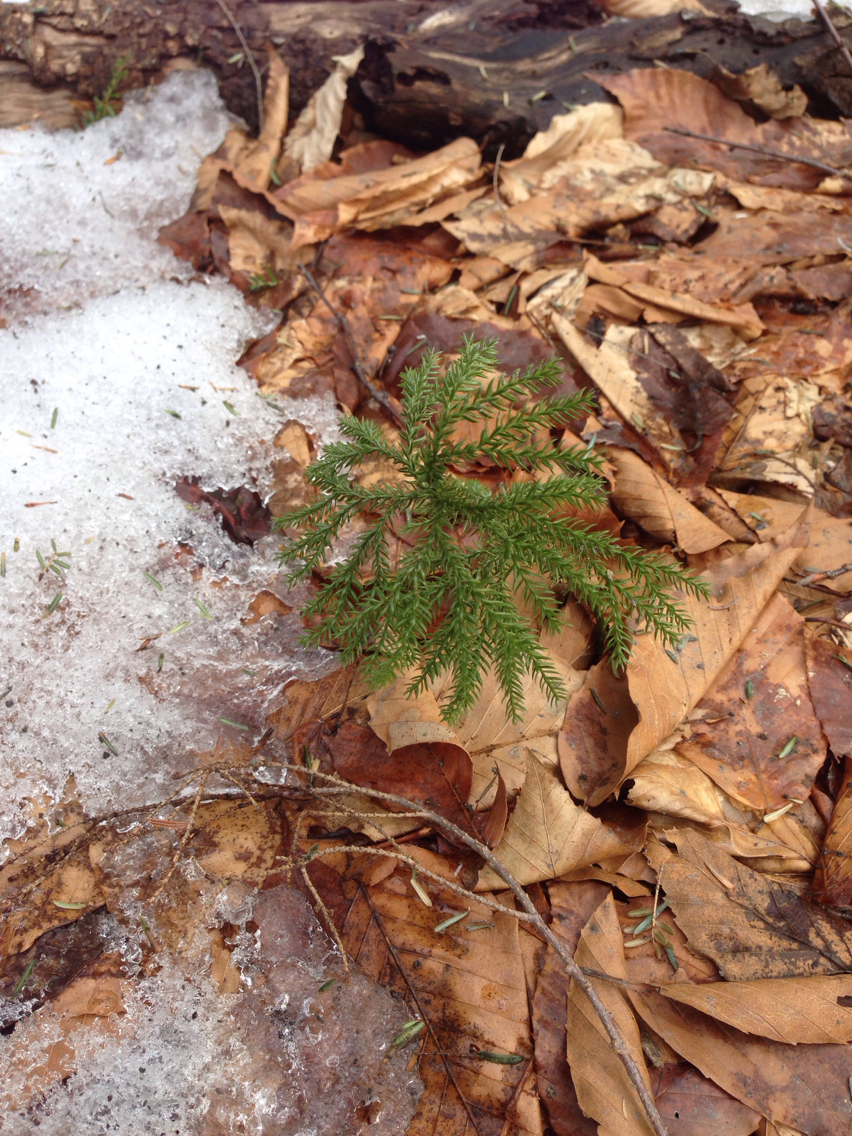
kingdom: Plantae
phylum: Tracheophyta
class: Lycopodiopsida
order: Lycopodiales
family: Lycopodiaceae
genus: Dendrolycopodium
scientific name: Dendrolycopodium obscurum
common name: Common ground-pine
